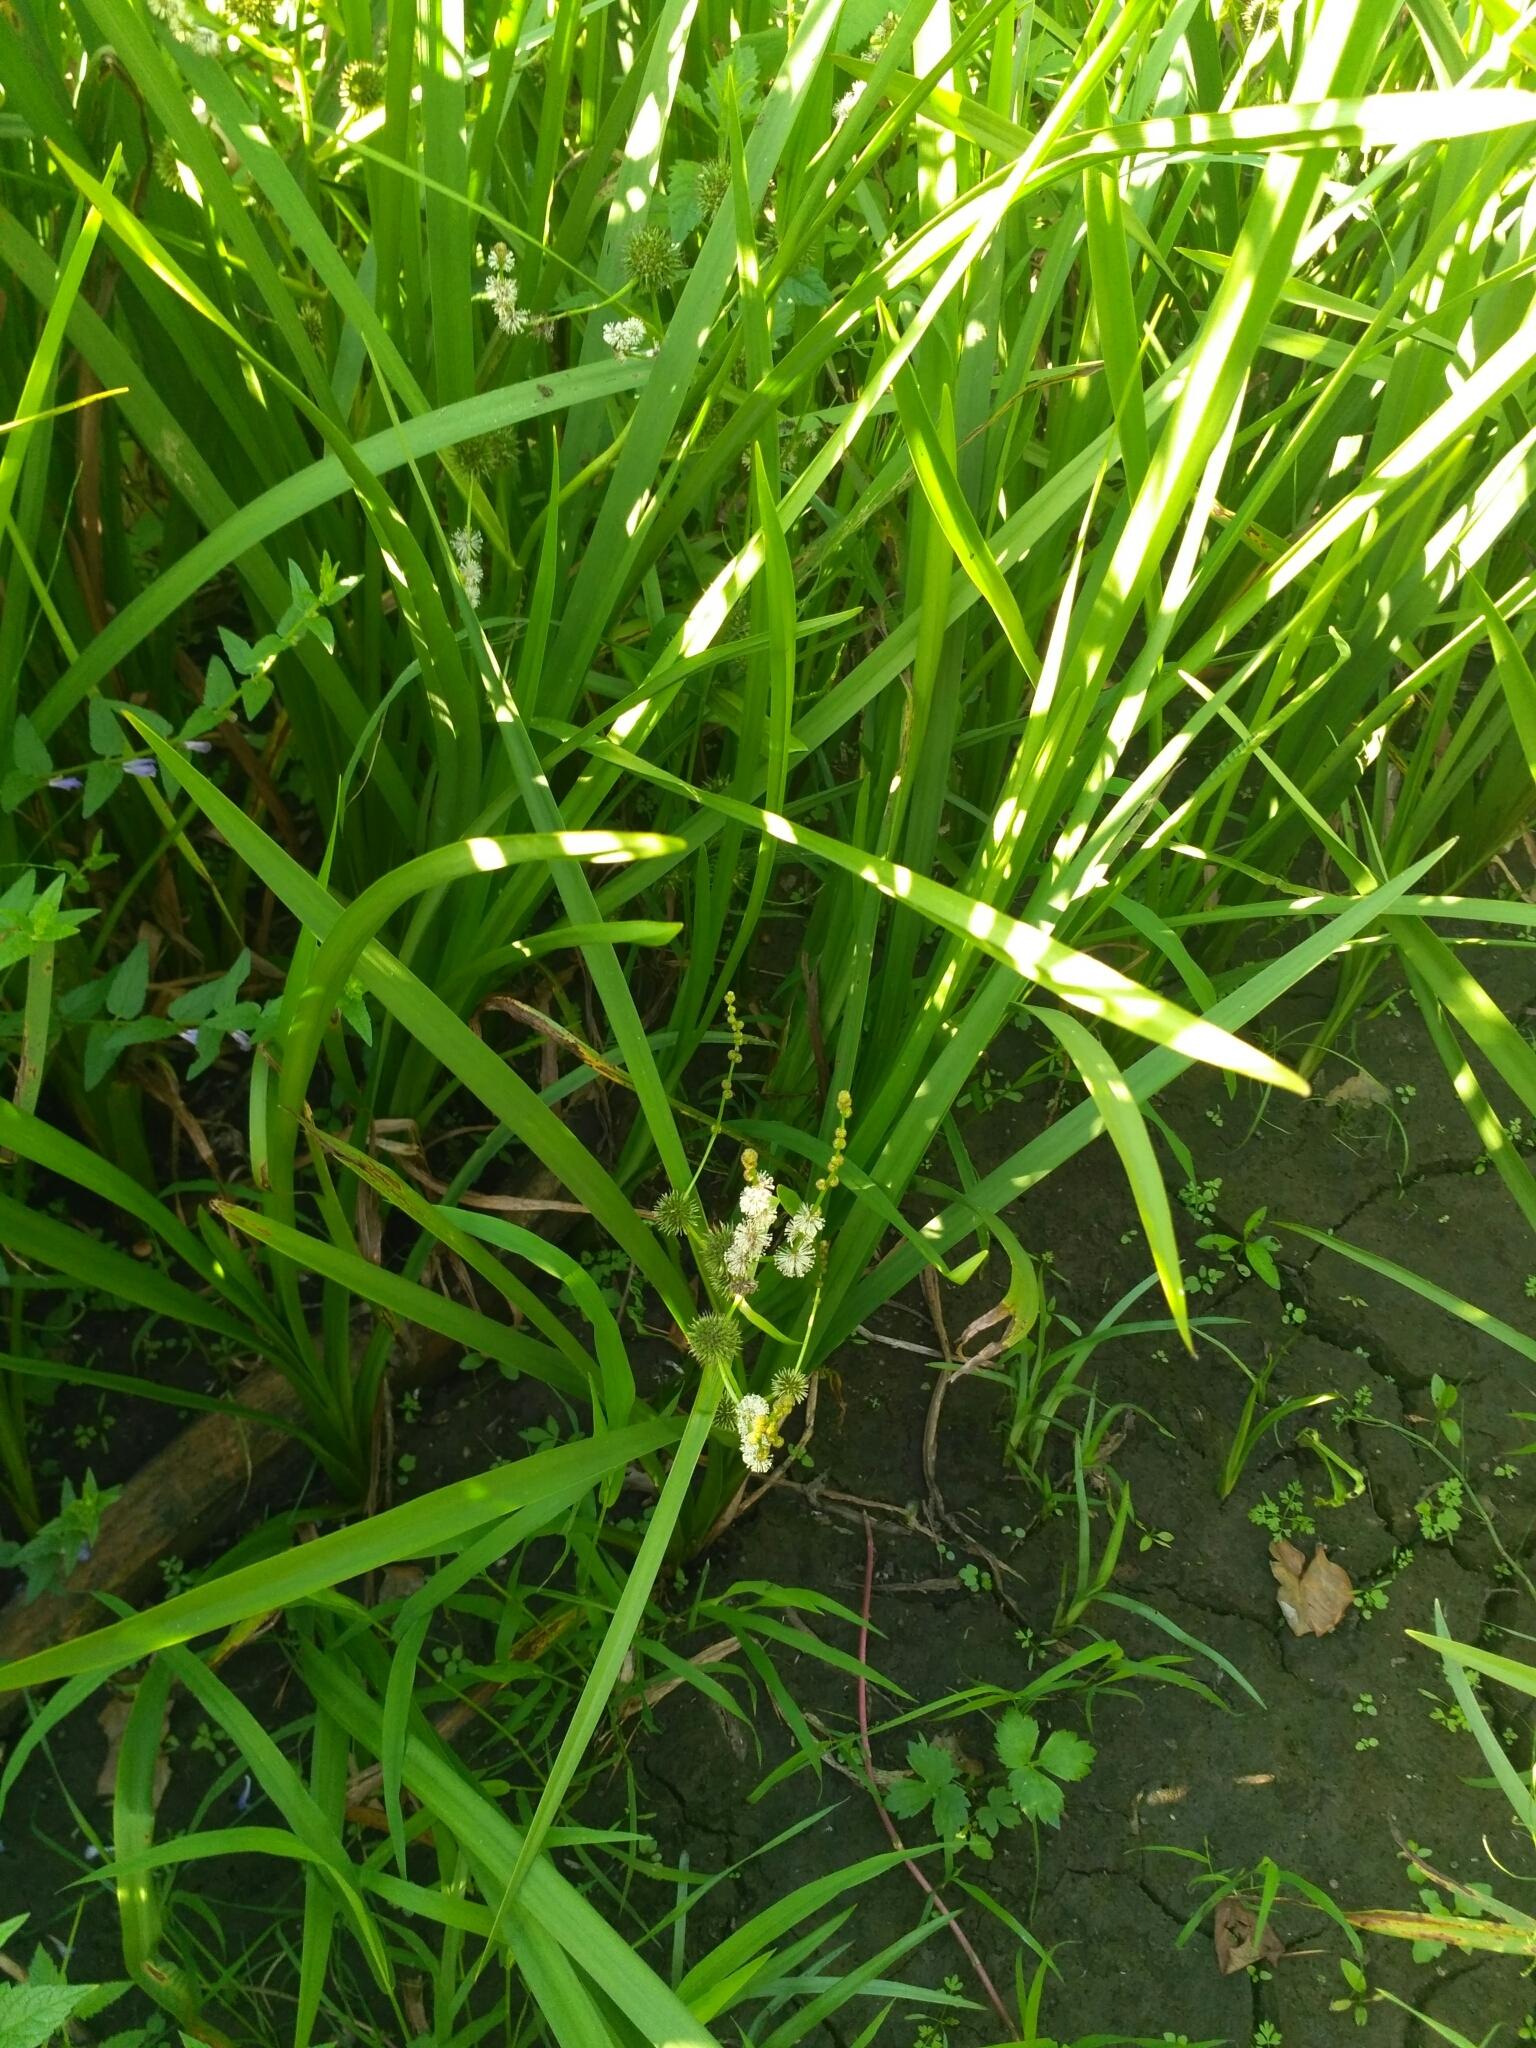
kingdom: Plantae
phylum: Tracheophyta
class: Liliopsida
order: Poales
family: Typhaceae
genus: Sparganium
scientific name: Sparganium erectum
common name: Branched bur-reed
